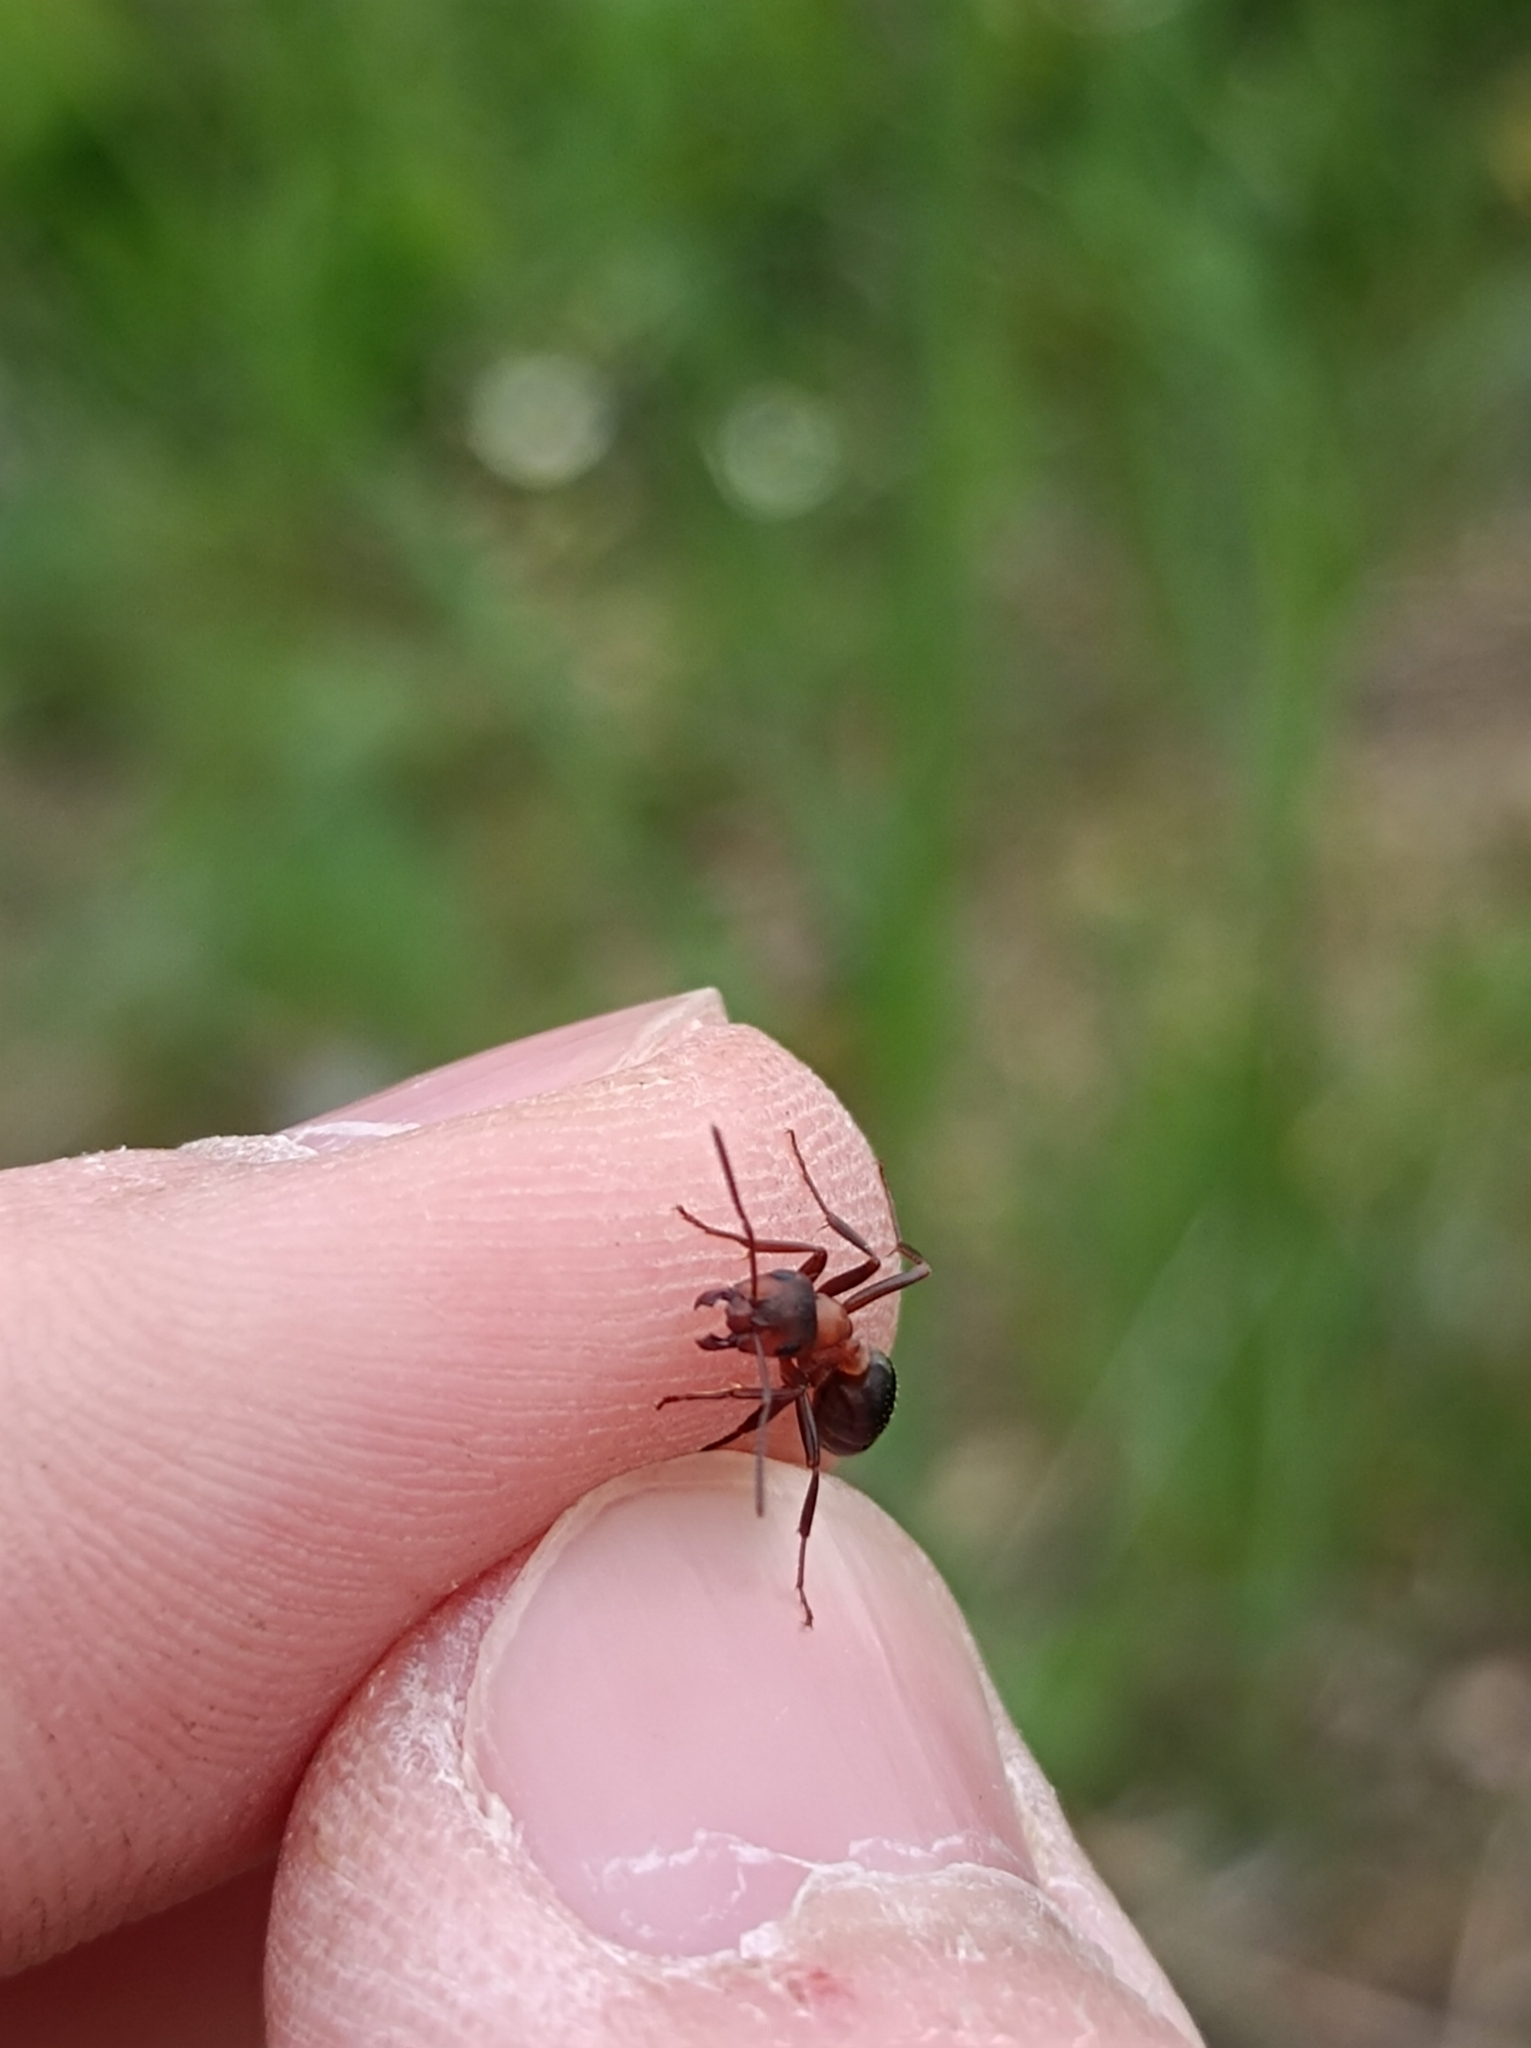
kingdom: Animalia
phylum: Arthropoda
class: Insecta
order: Hymenoptera
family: Formicidae
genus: Formica
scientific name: Formica sanguinea
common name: Blood-red ant
